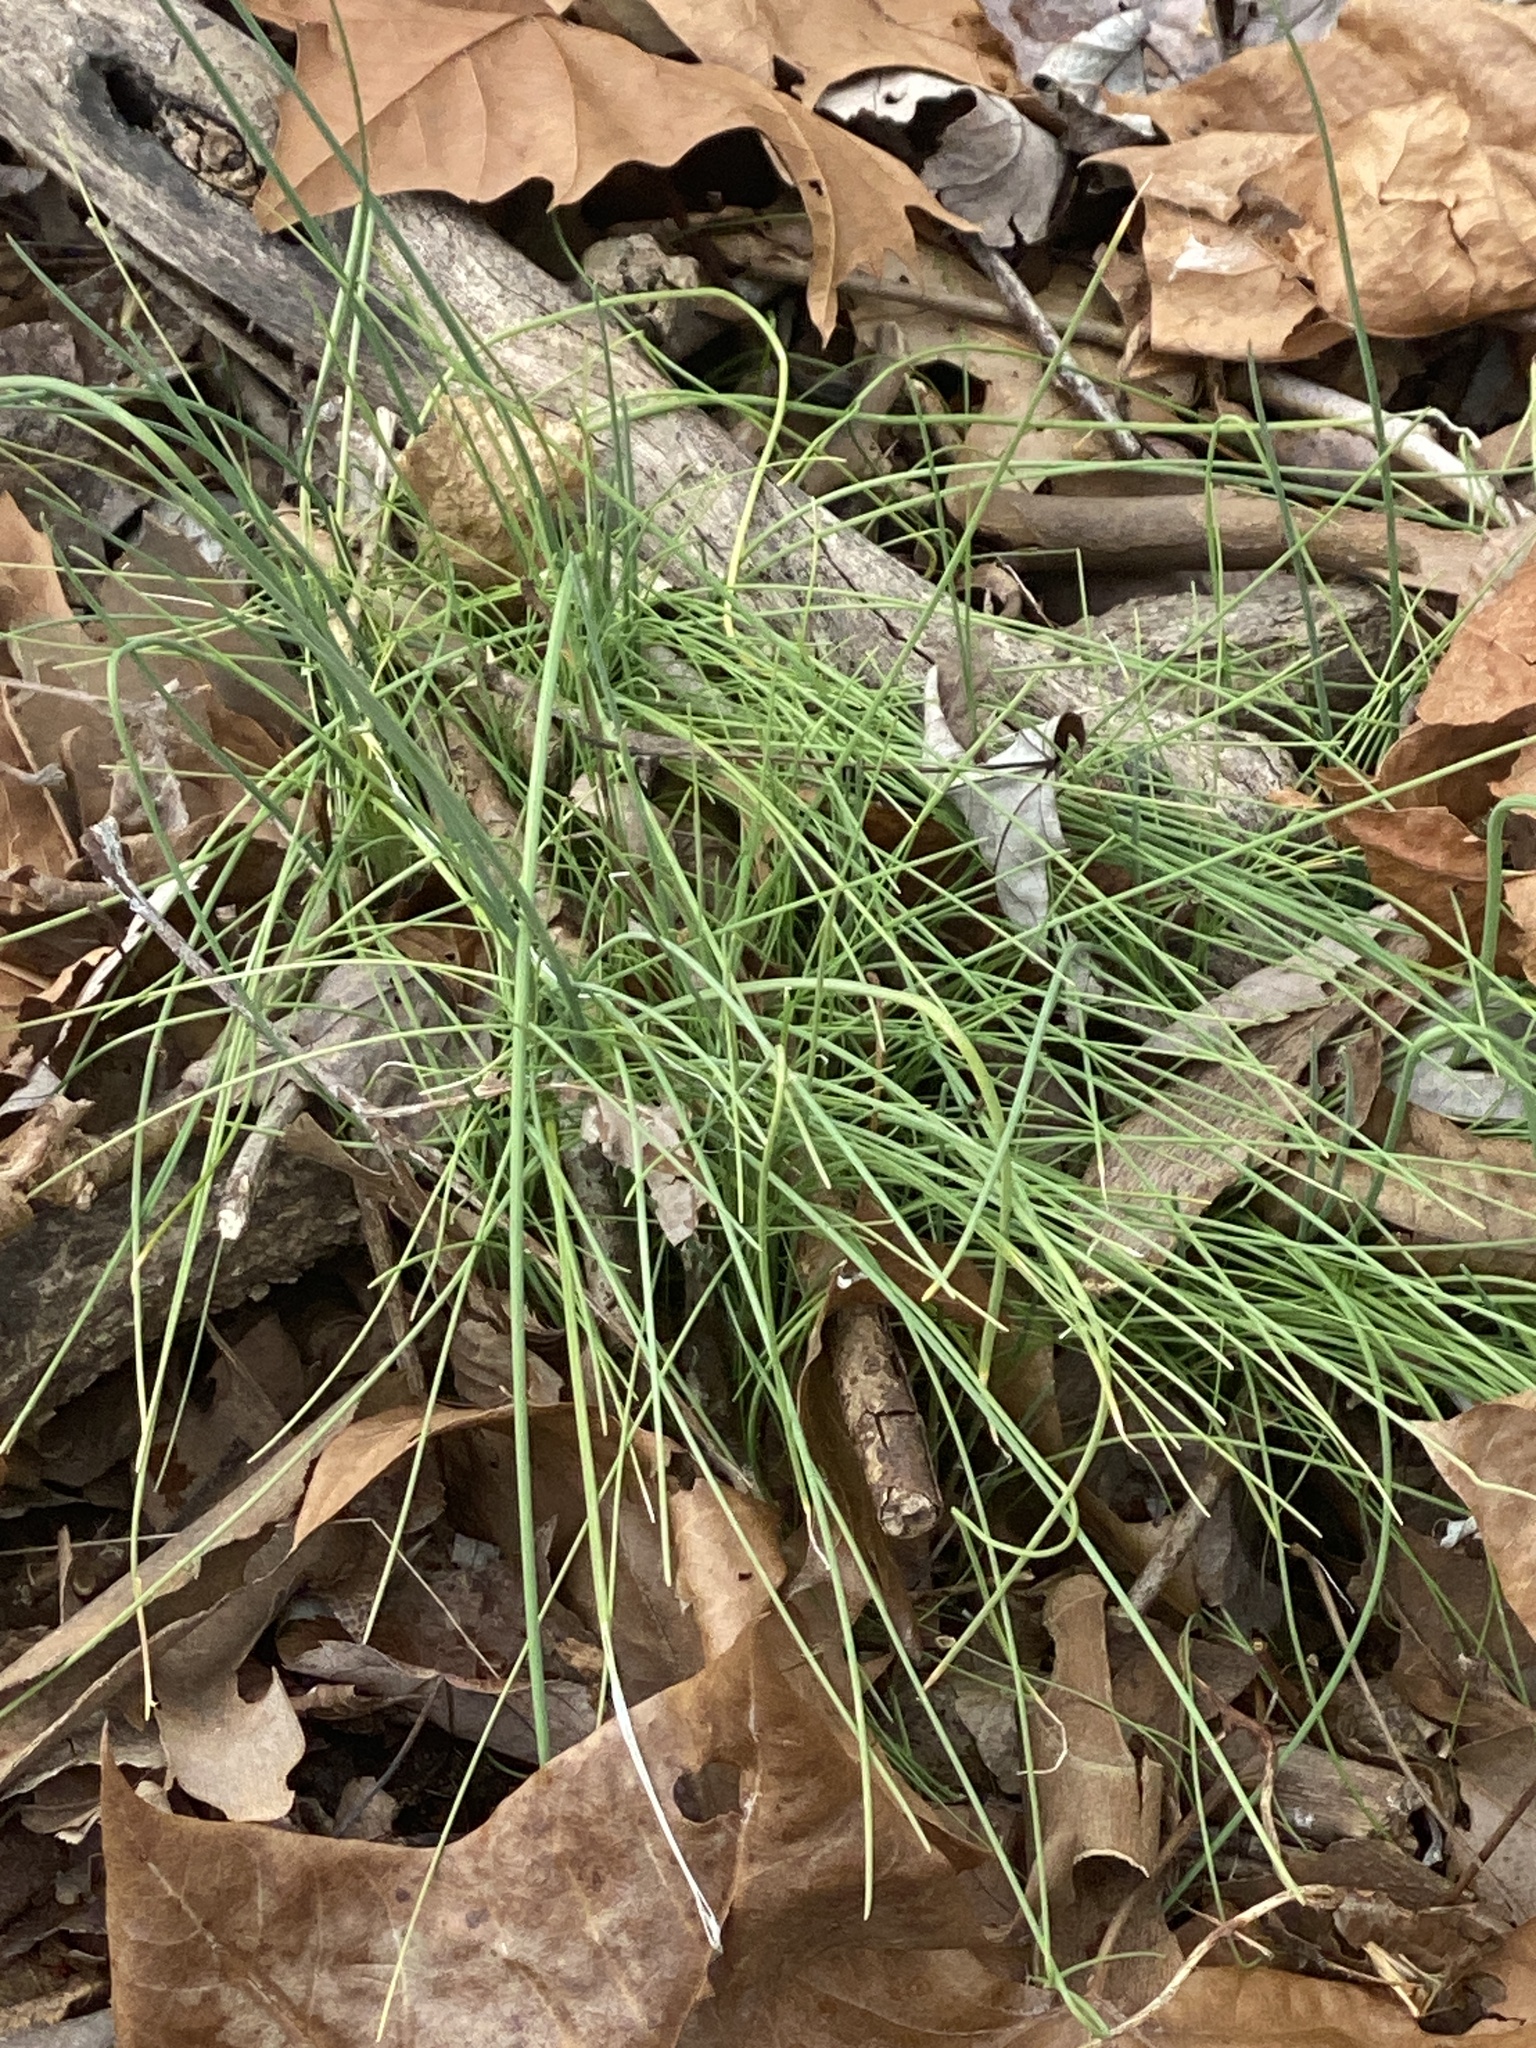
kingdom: Plantae
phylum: Tracheophyta
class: Liliopsida
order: Asparagales
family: Amaryllidaceae
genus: Allium
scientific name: Allium vineale
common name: Crow garlic
